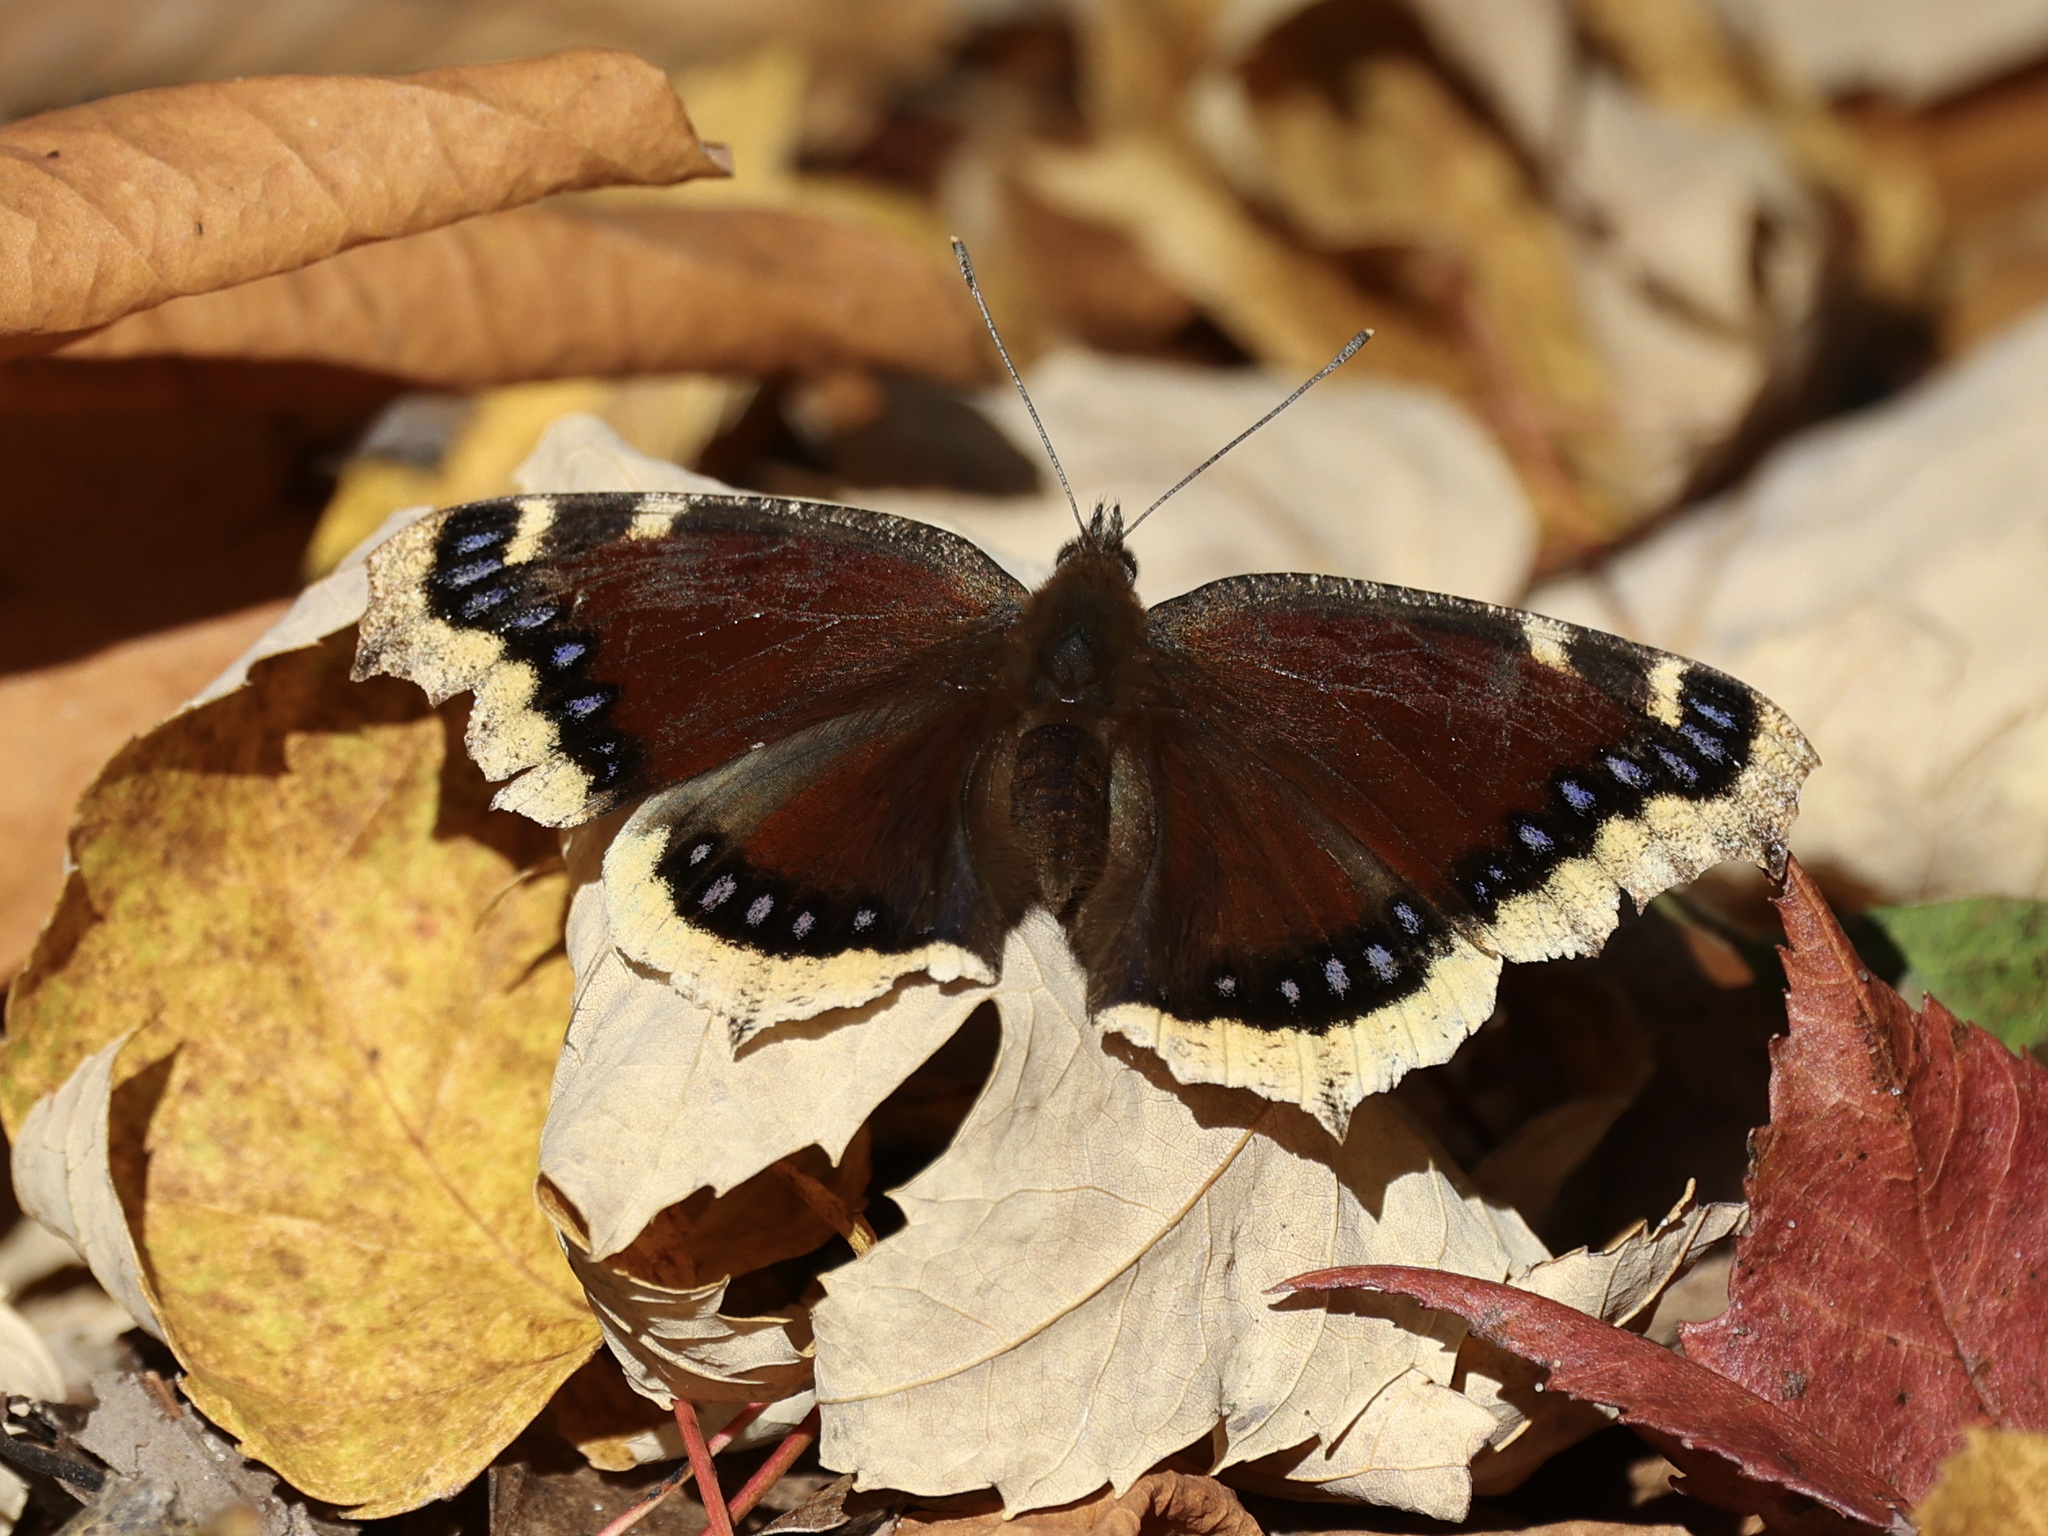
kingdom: Animalia
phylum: Arthropoda
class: Insecta
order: Lepidoptera
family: Nymphalidae
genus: Nymphalis
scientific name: Nymphalis antiopa
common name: Camberwell beauty
